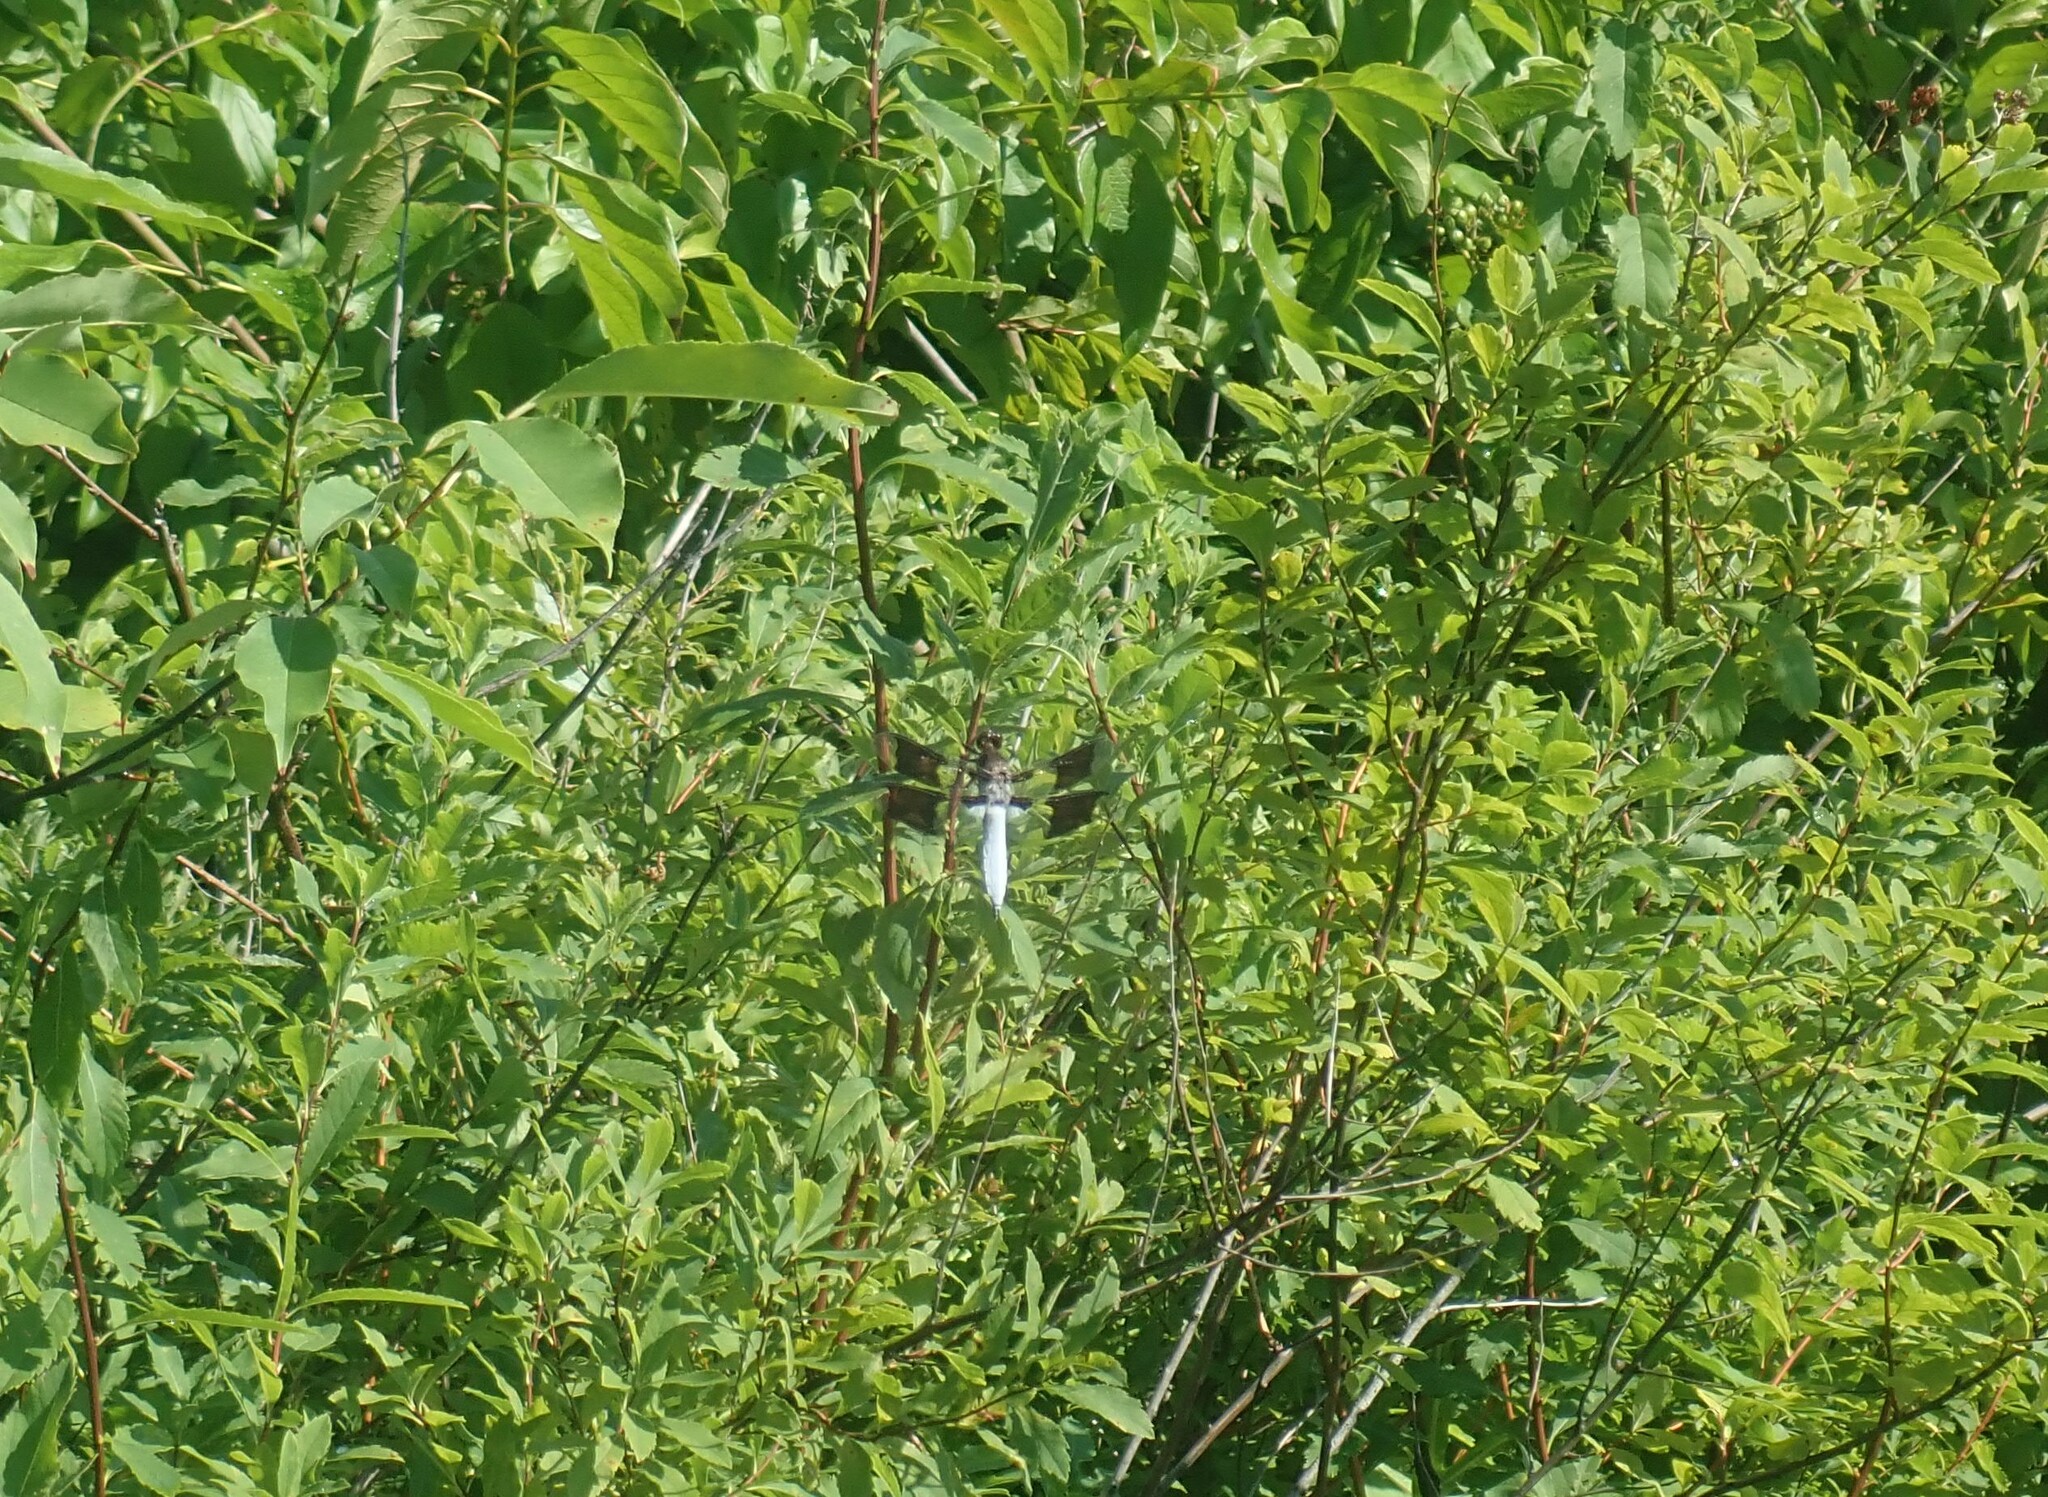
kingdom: Animalia
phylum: Arthropoda
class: Insecta
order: Odonata
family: Libellulidae
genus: Plathemis
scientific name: Plathemis lydia
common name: Common whitetail
